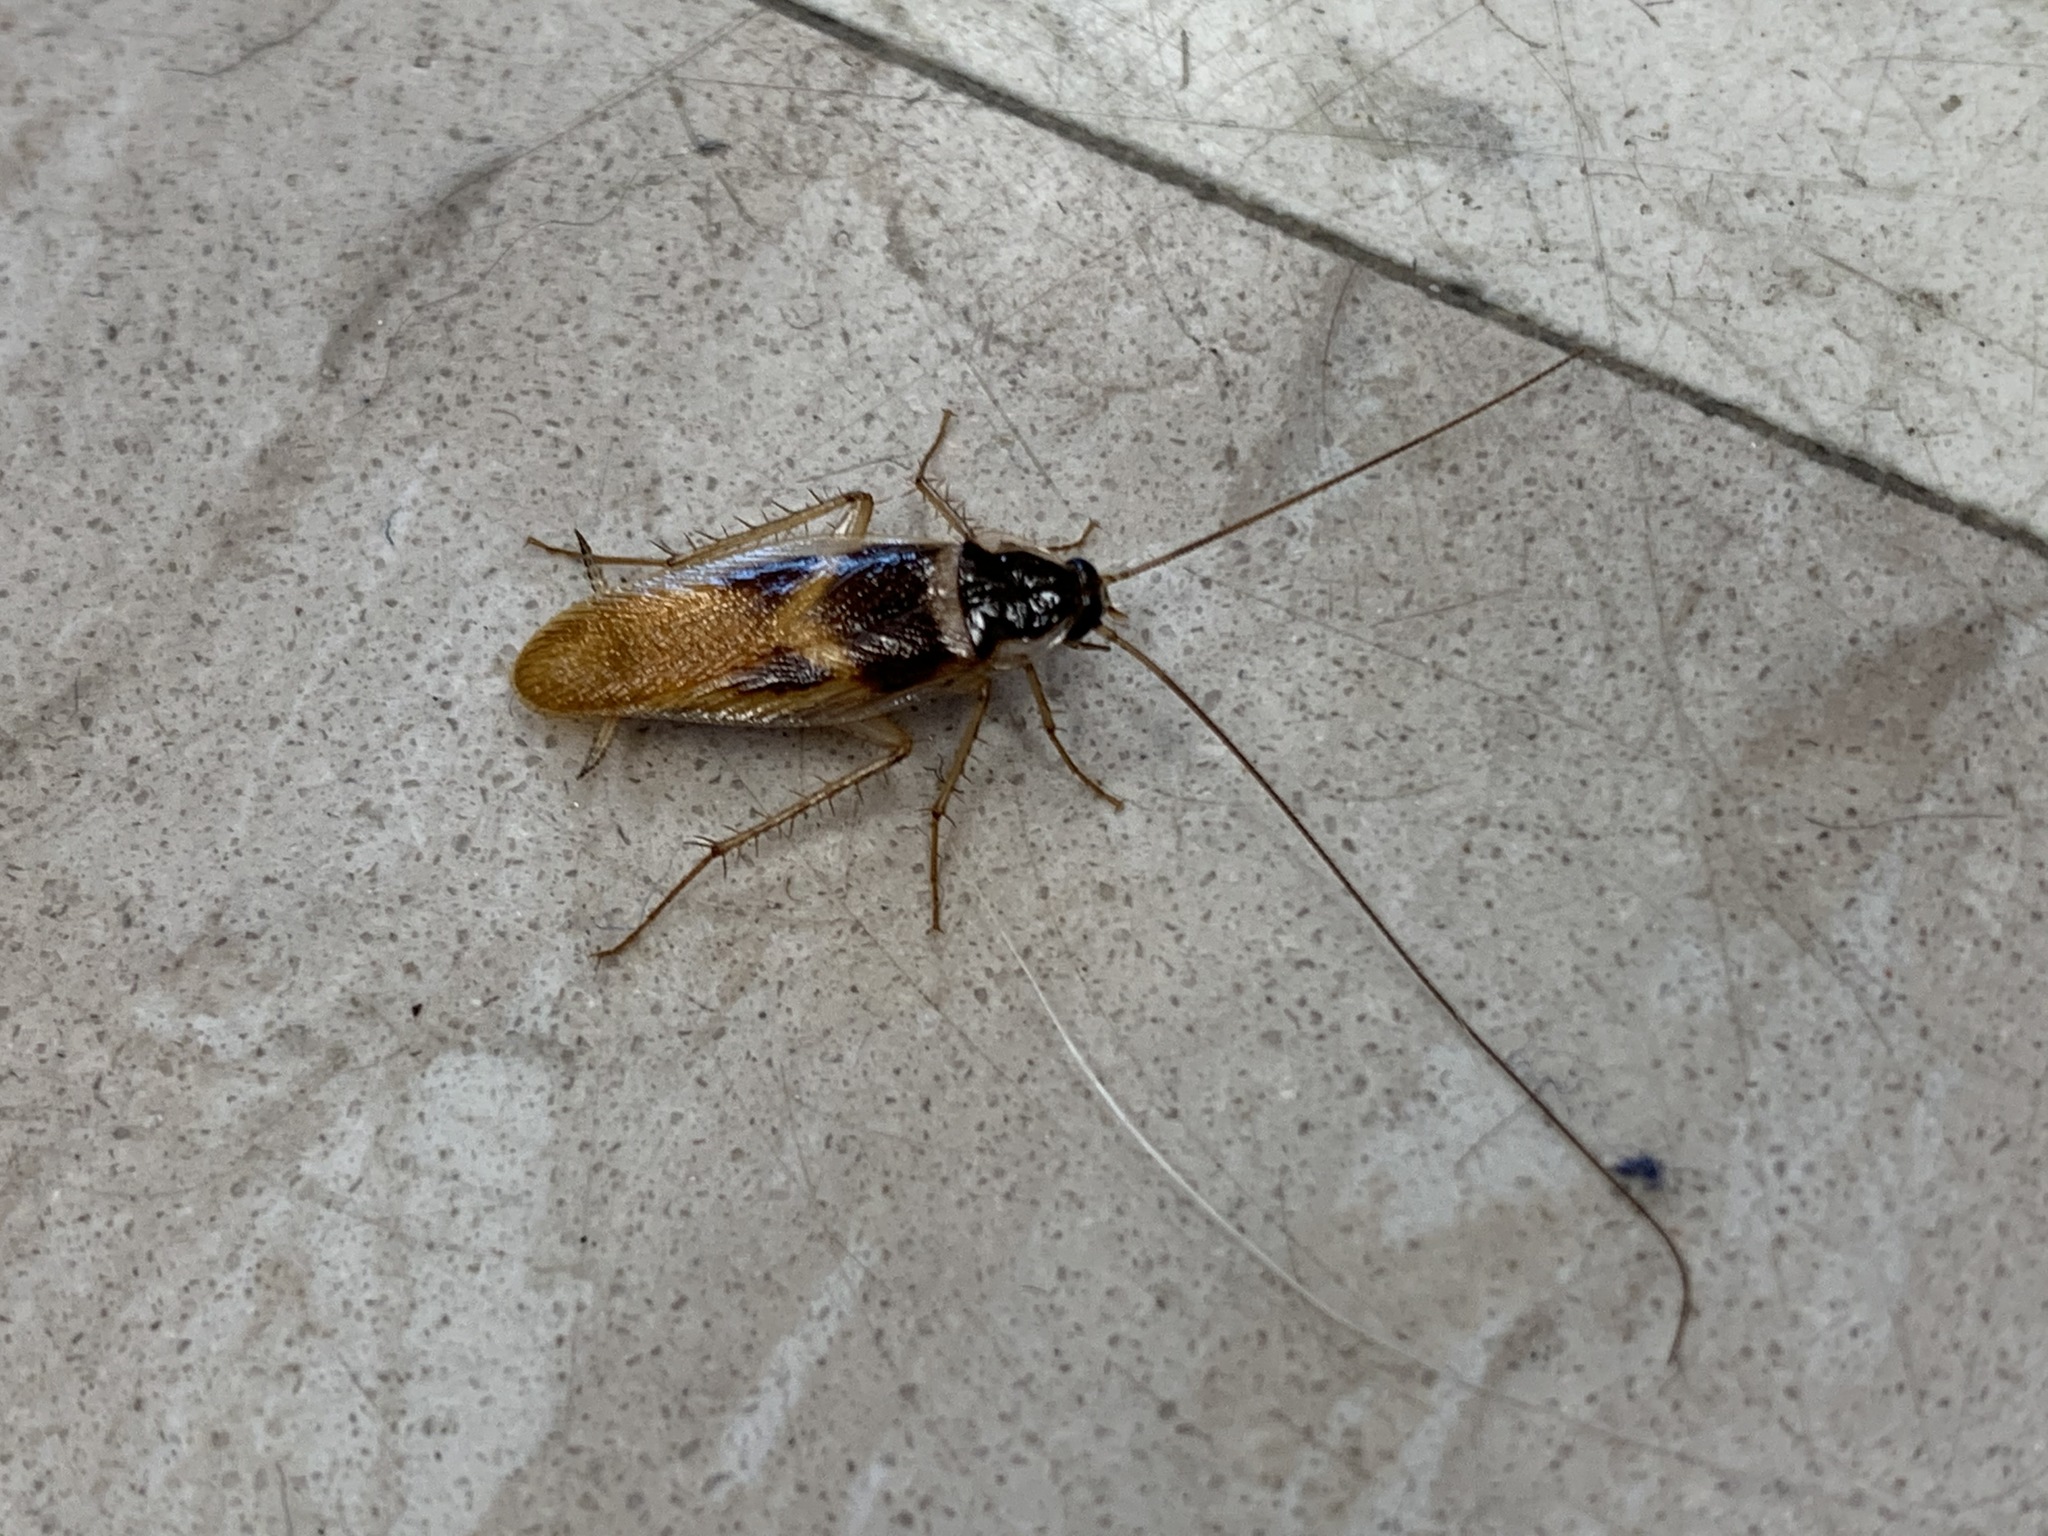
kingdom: Animalia
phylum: Arthropoda
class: Insecta
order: Blattodea
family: Ectobiidae
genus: Supella
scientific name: Supella longipalpa
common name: Brown-banded cockroach
